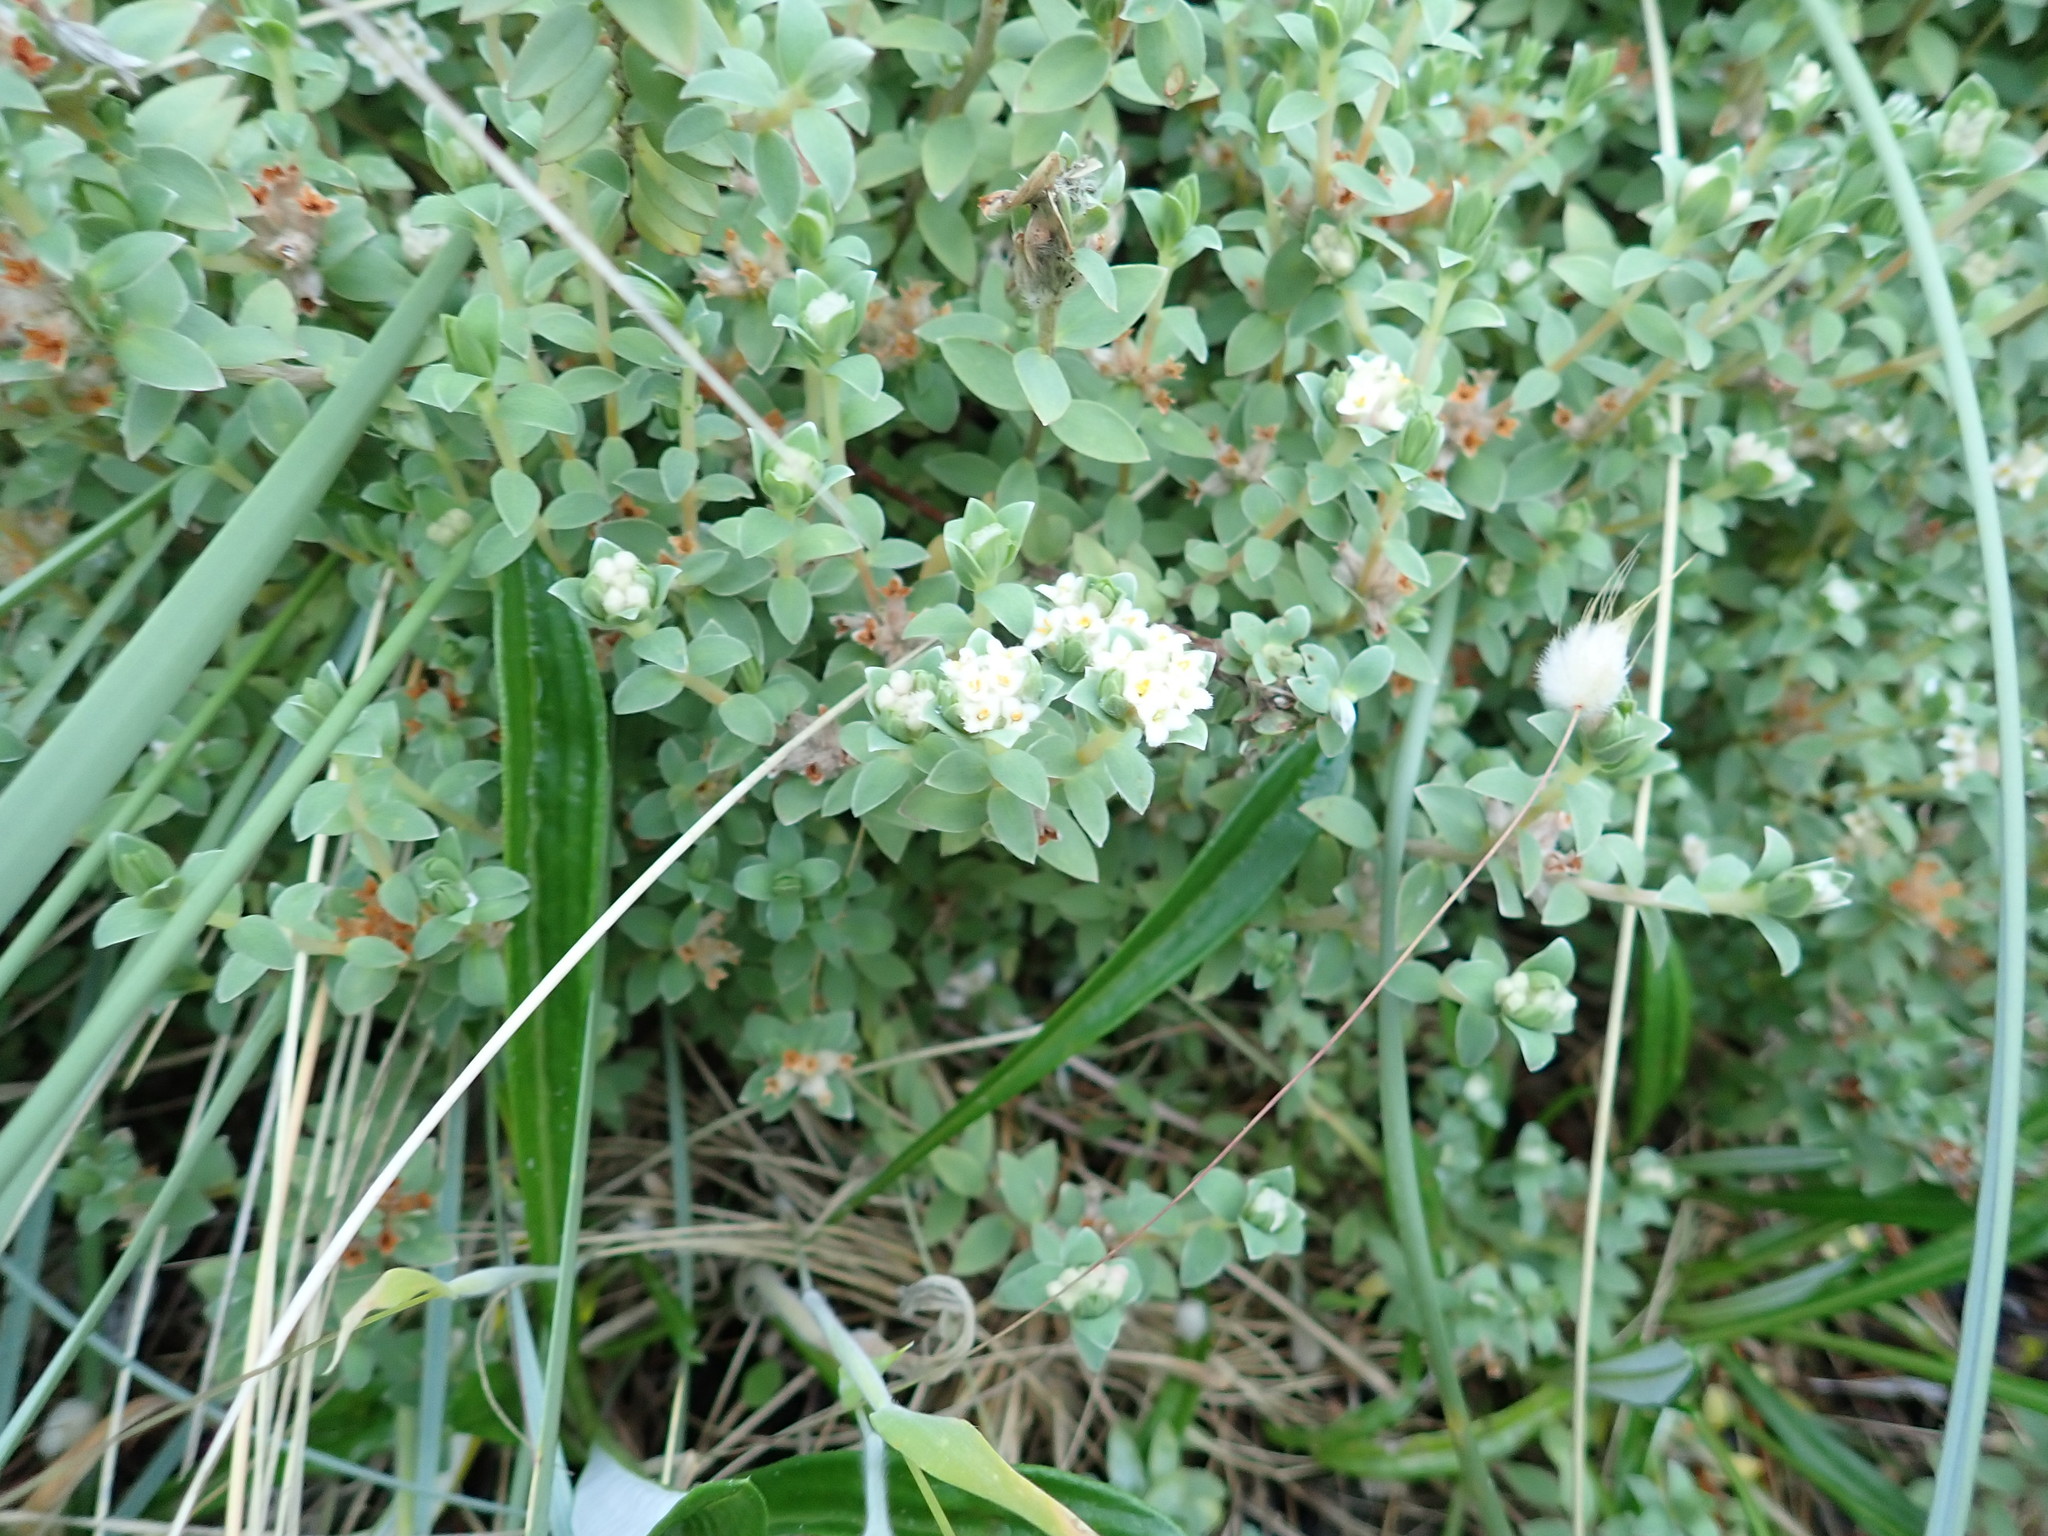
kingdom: Plantae
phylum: Tracheophyta
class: Magnoliopsida
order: Malvales
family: Thymelaeaceae
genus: Pimelea
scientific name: Pimelea villosa
